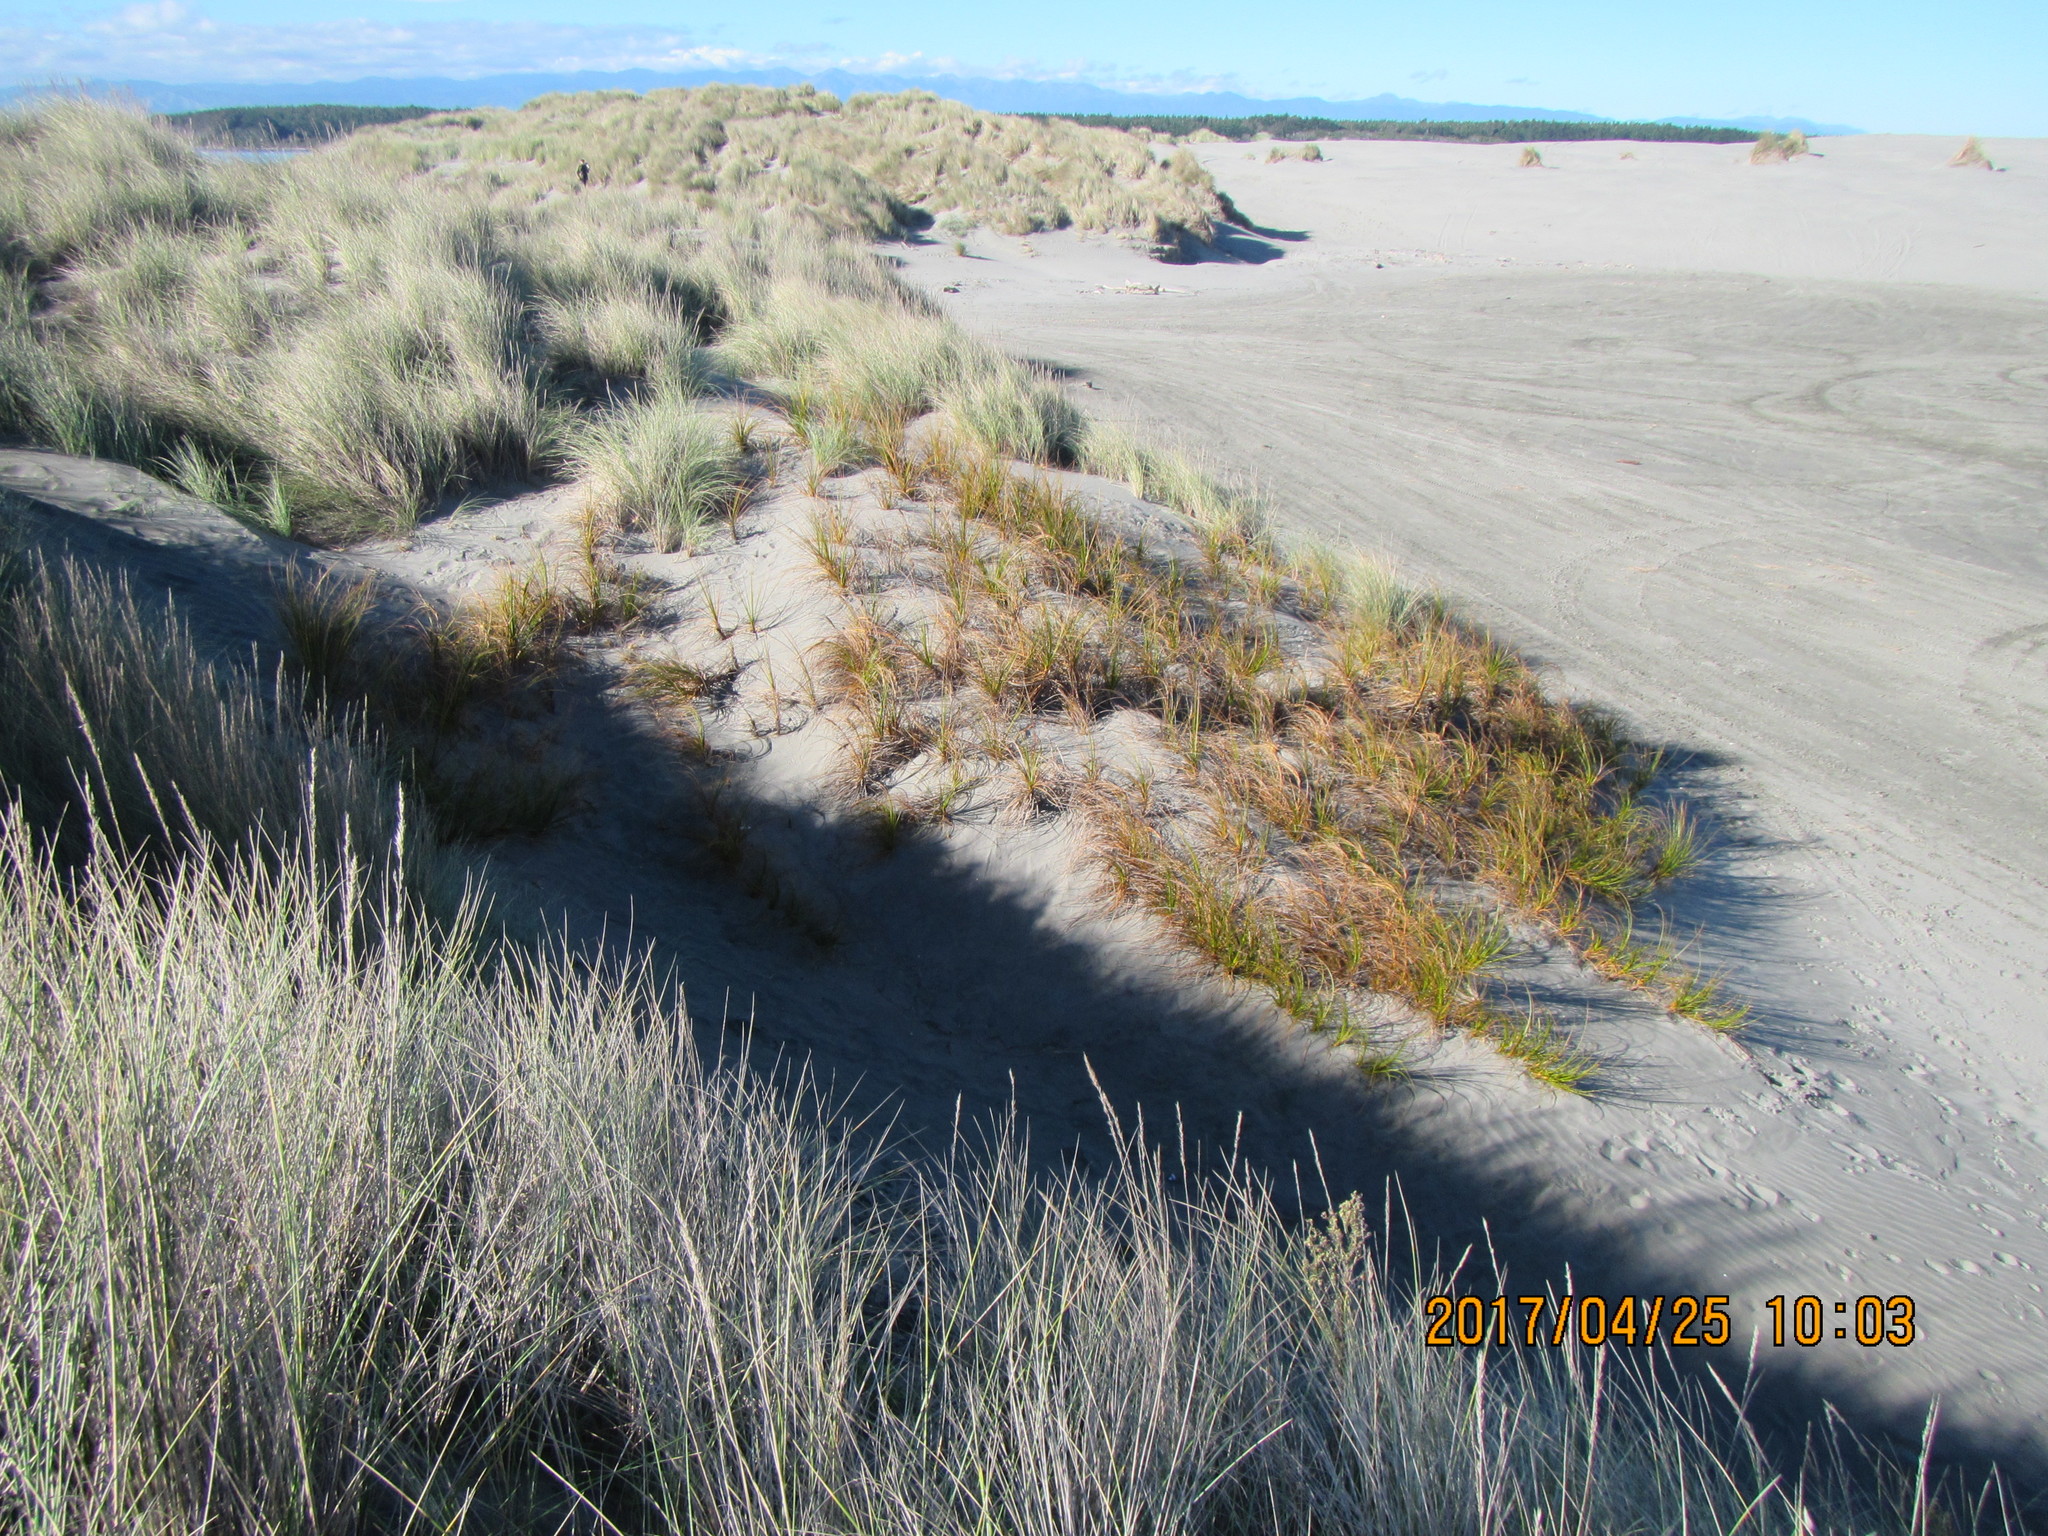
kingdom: Plantae
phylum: Tracheophyta
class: Liliopsida
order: Poales
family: Cyperaceae
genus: Ficinia
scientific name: Ficinia spiralis
